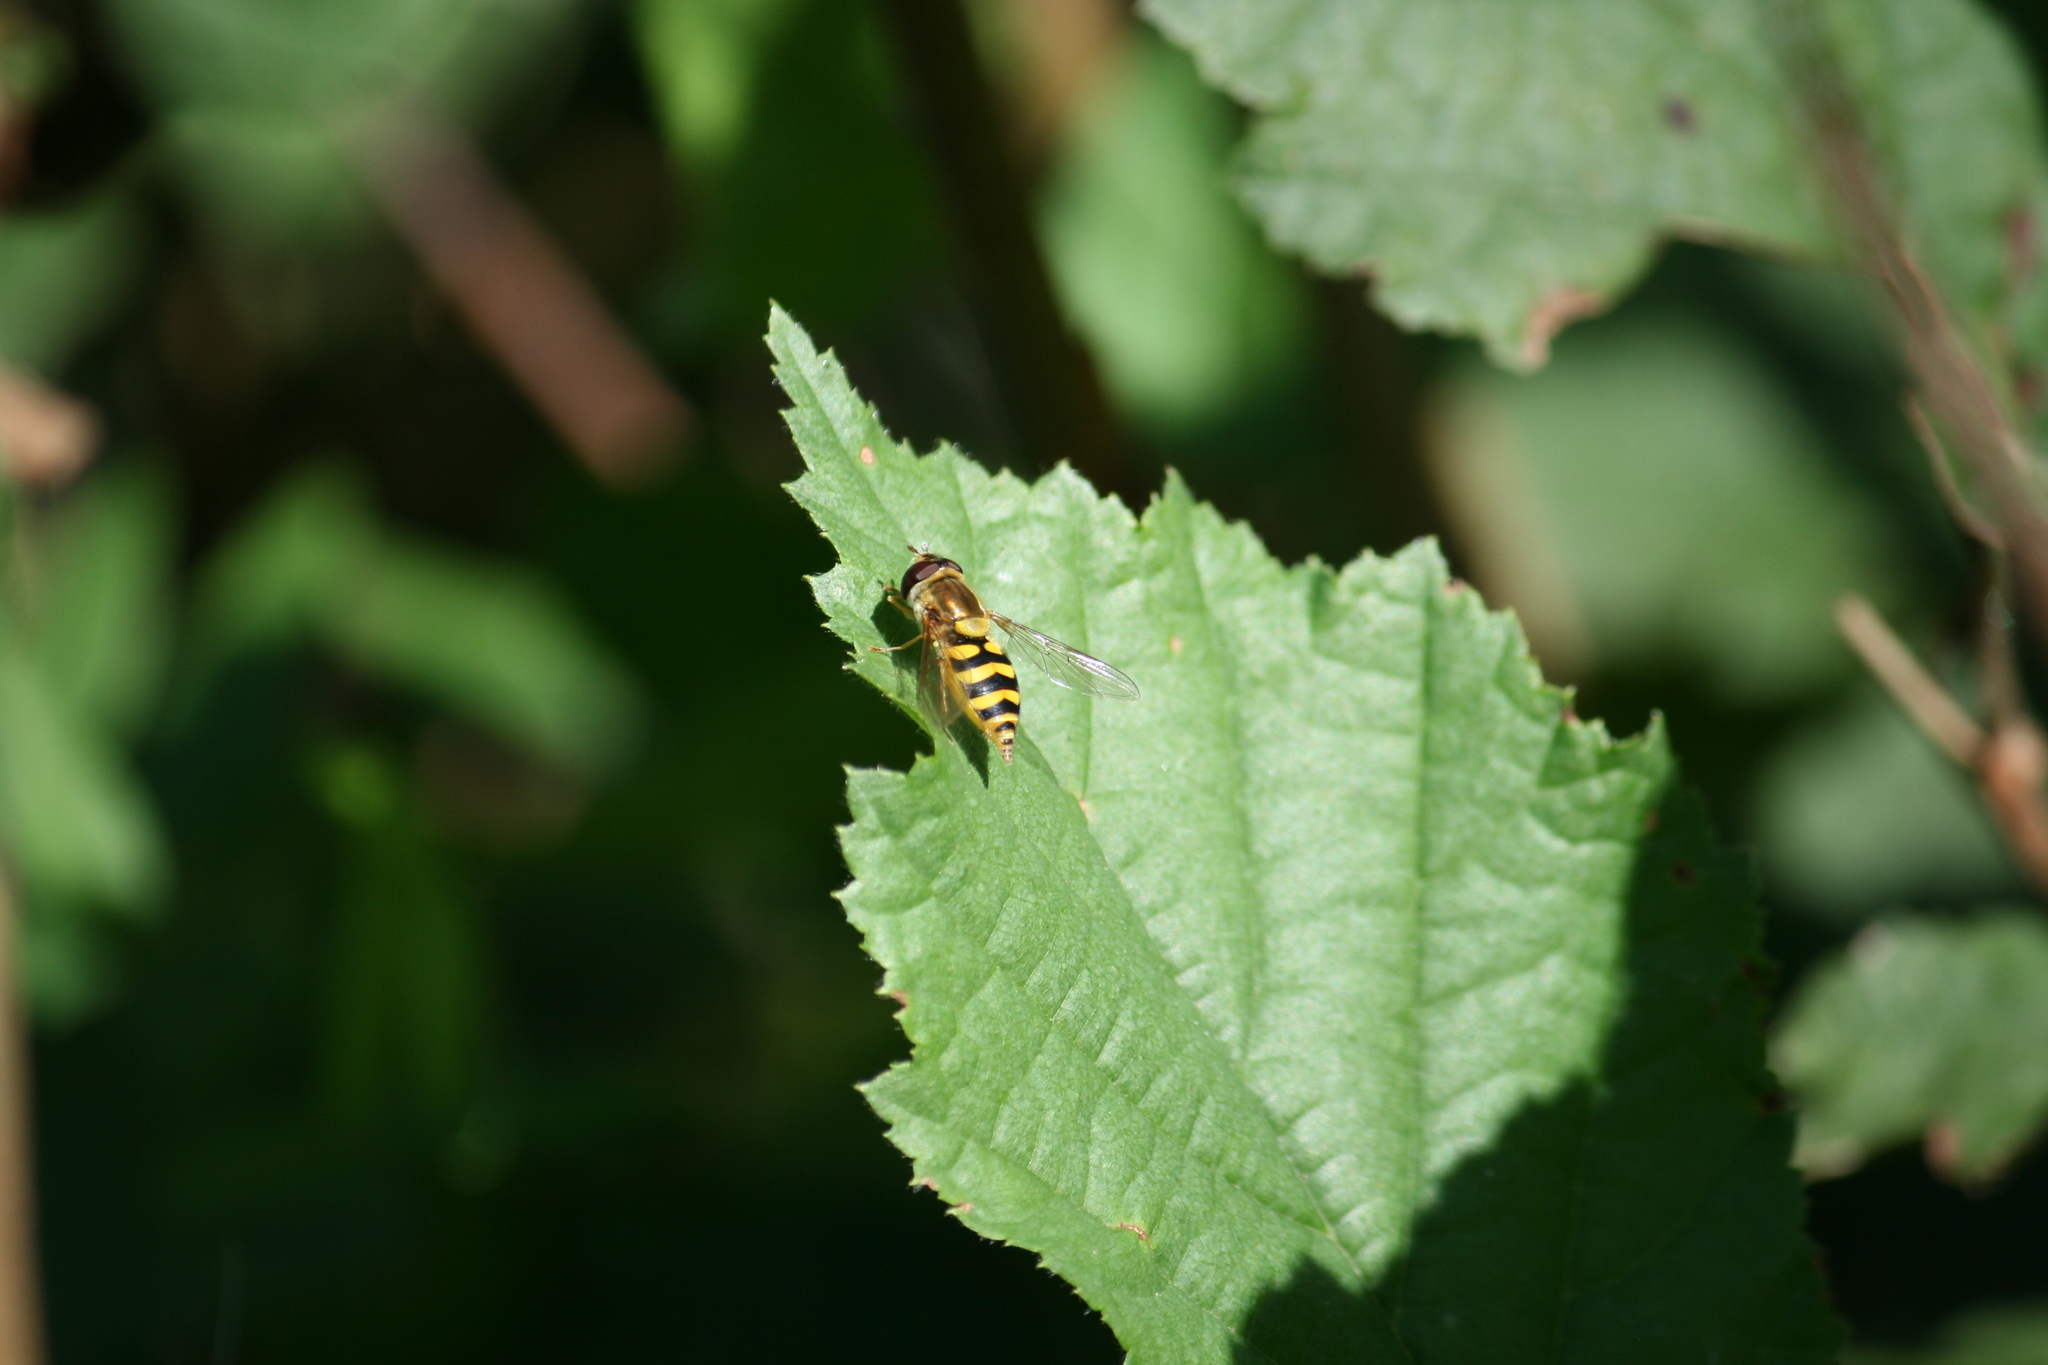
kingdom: Animalia
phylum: Arthropoda
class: Insecta
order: Diptera
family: Syrphidae
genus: Syrphus
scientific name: Syrphus
